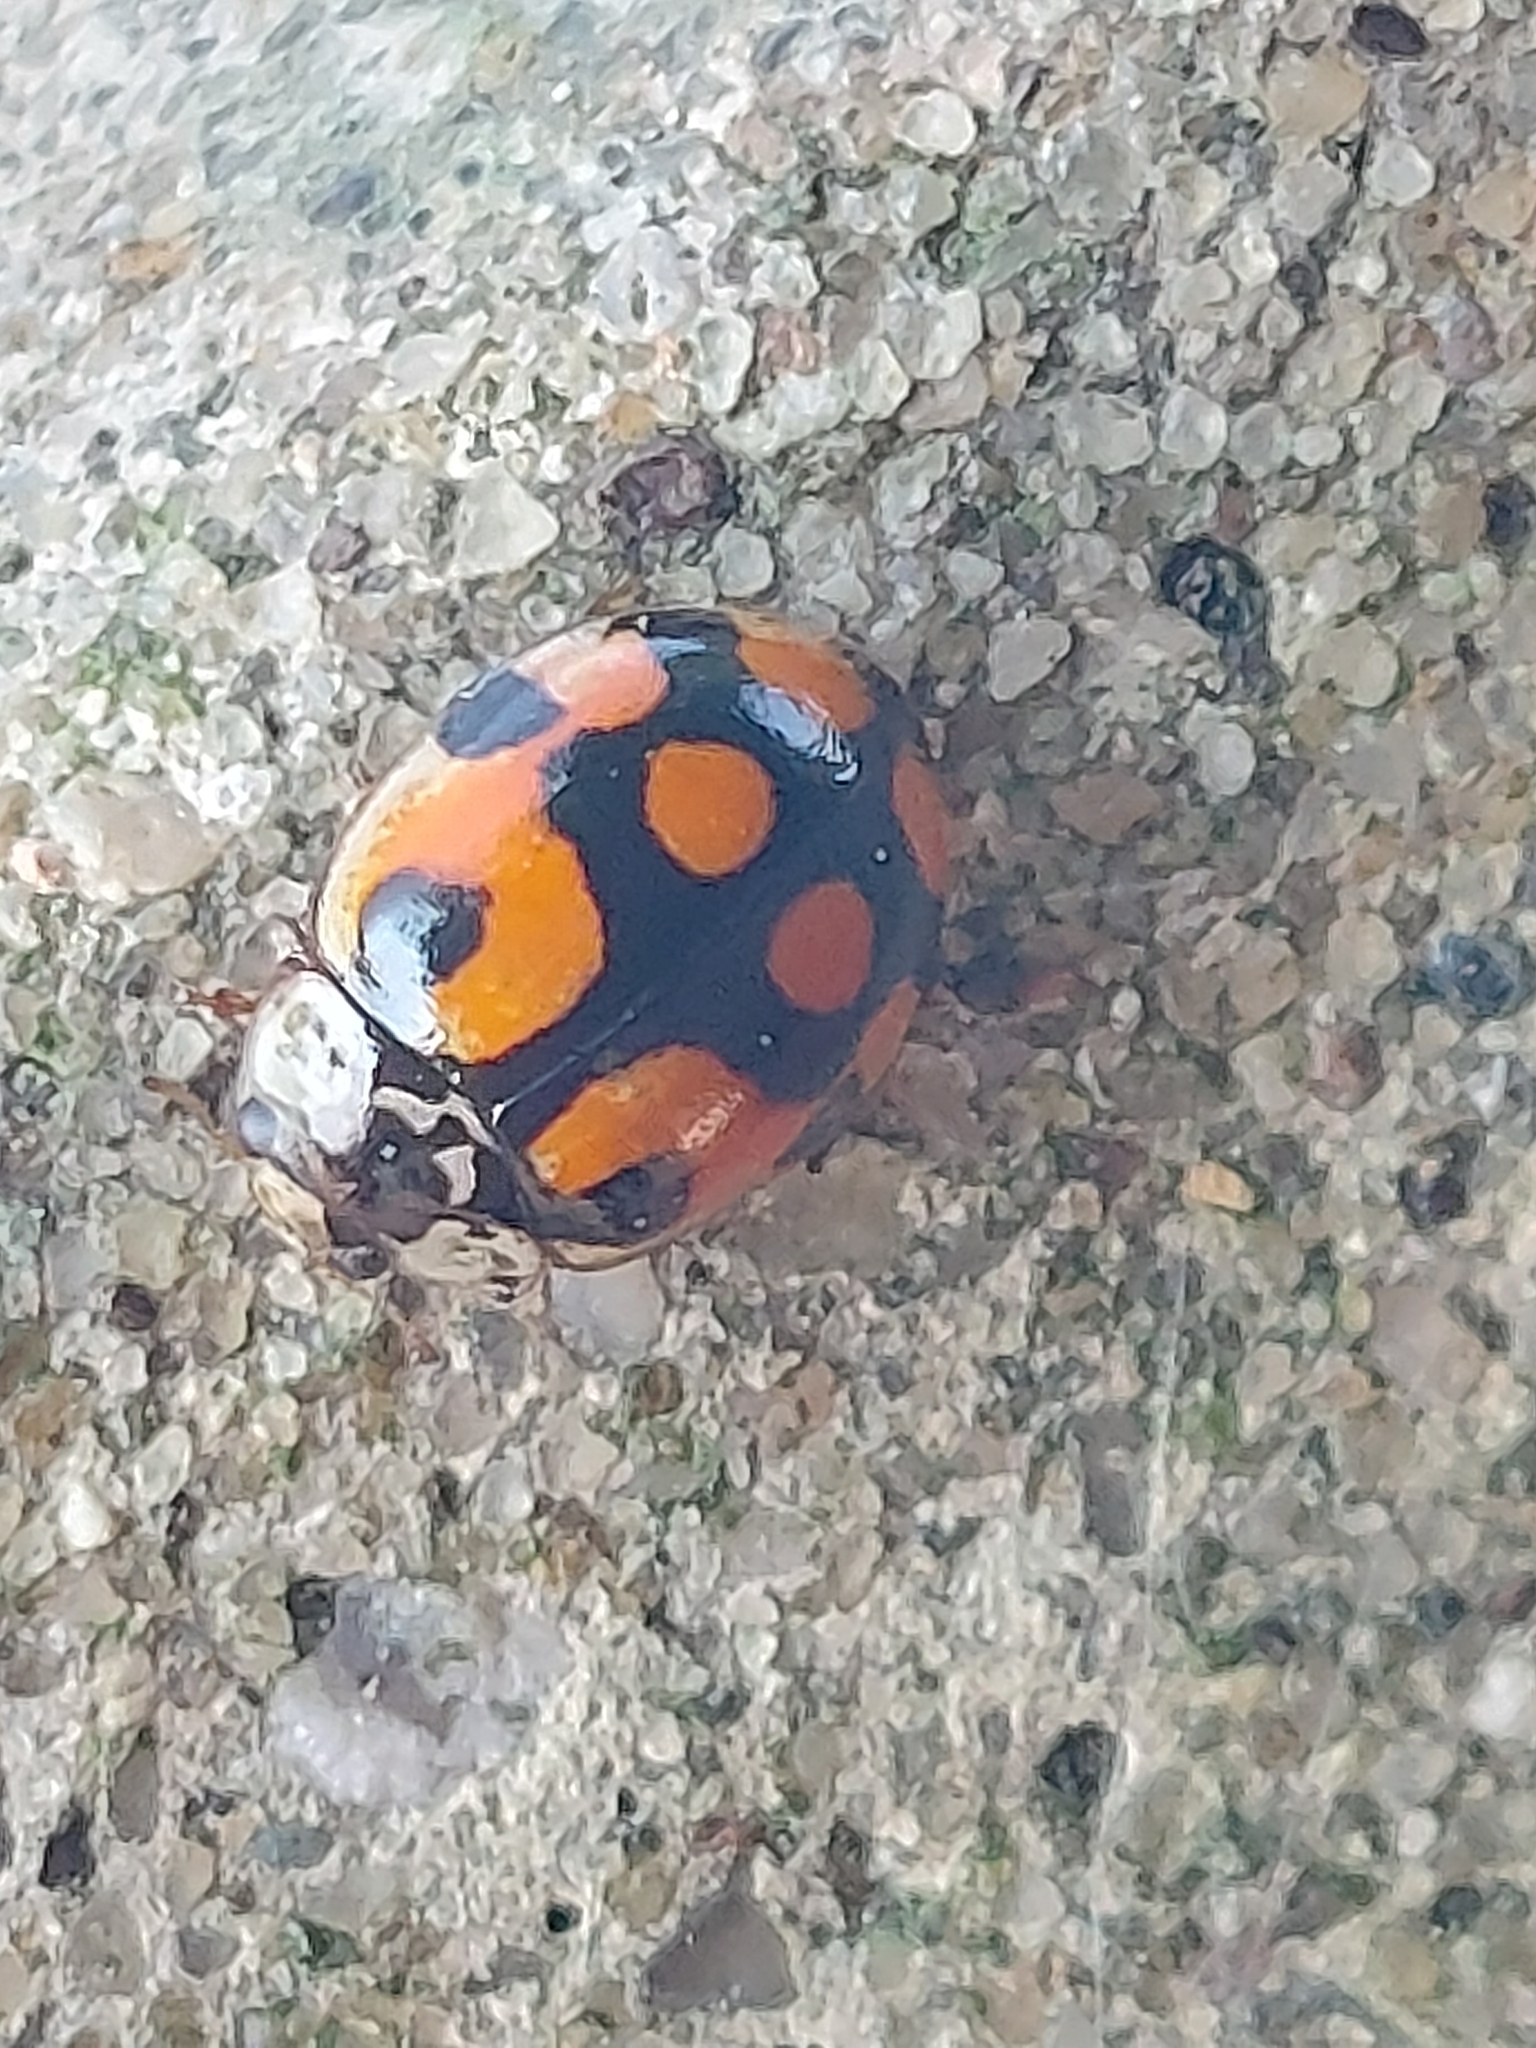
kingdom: Animalia
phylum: Arthropoda
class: Insecta
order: Coleoptera
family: Coccinellidae
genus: Adalia
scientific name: Adalia decempunctata
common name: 10-spot ladybird
